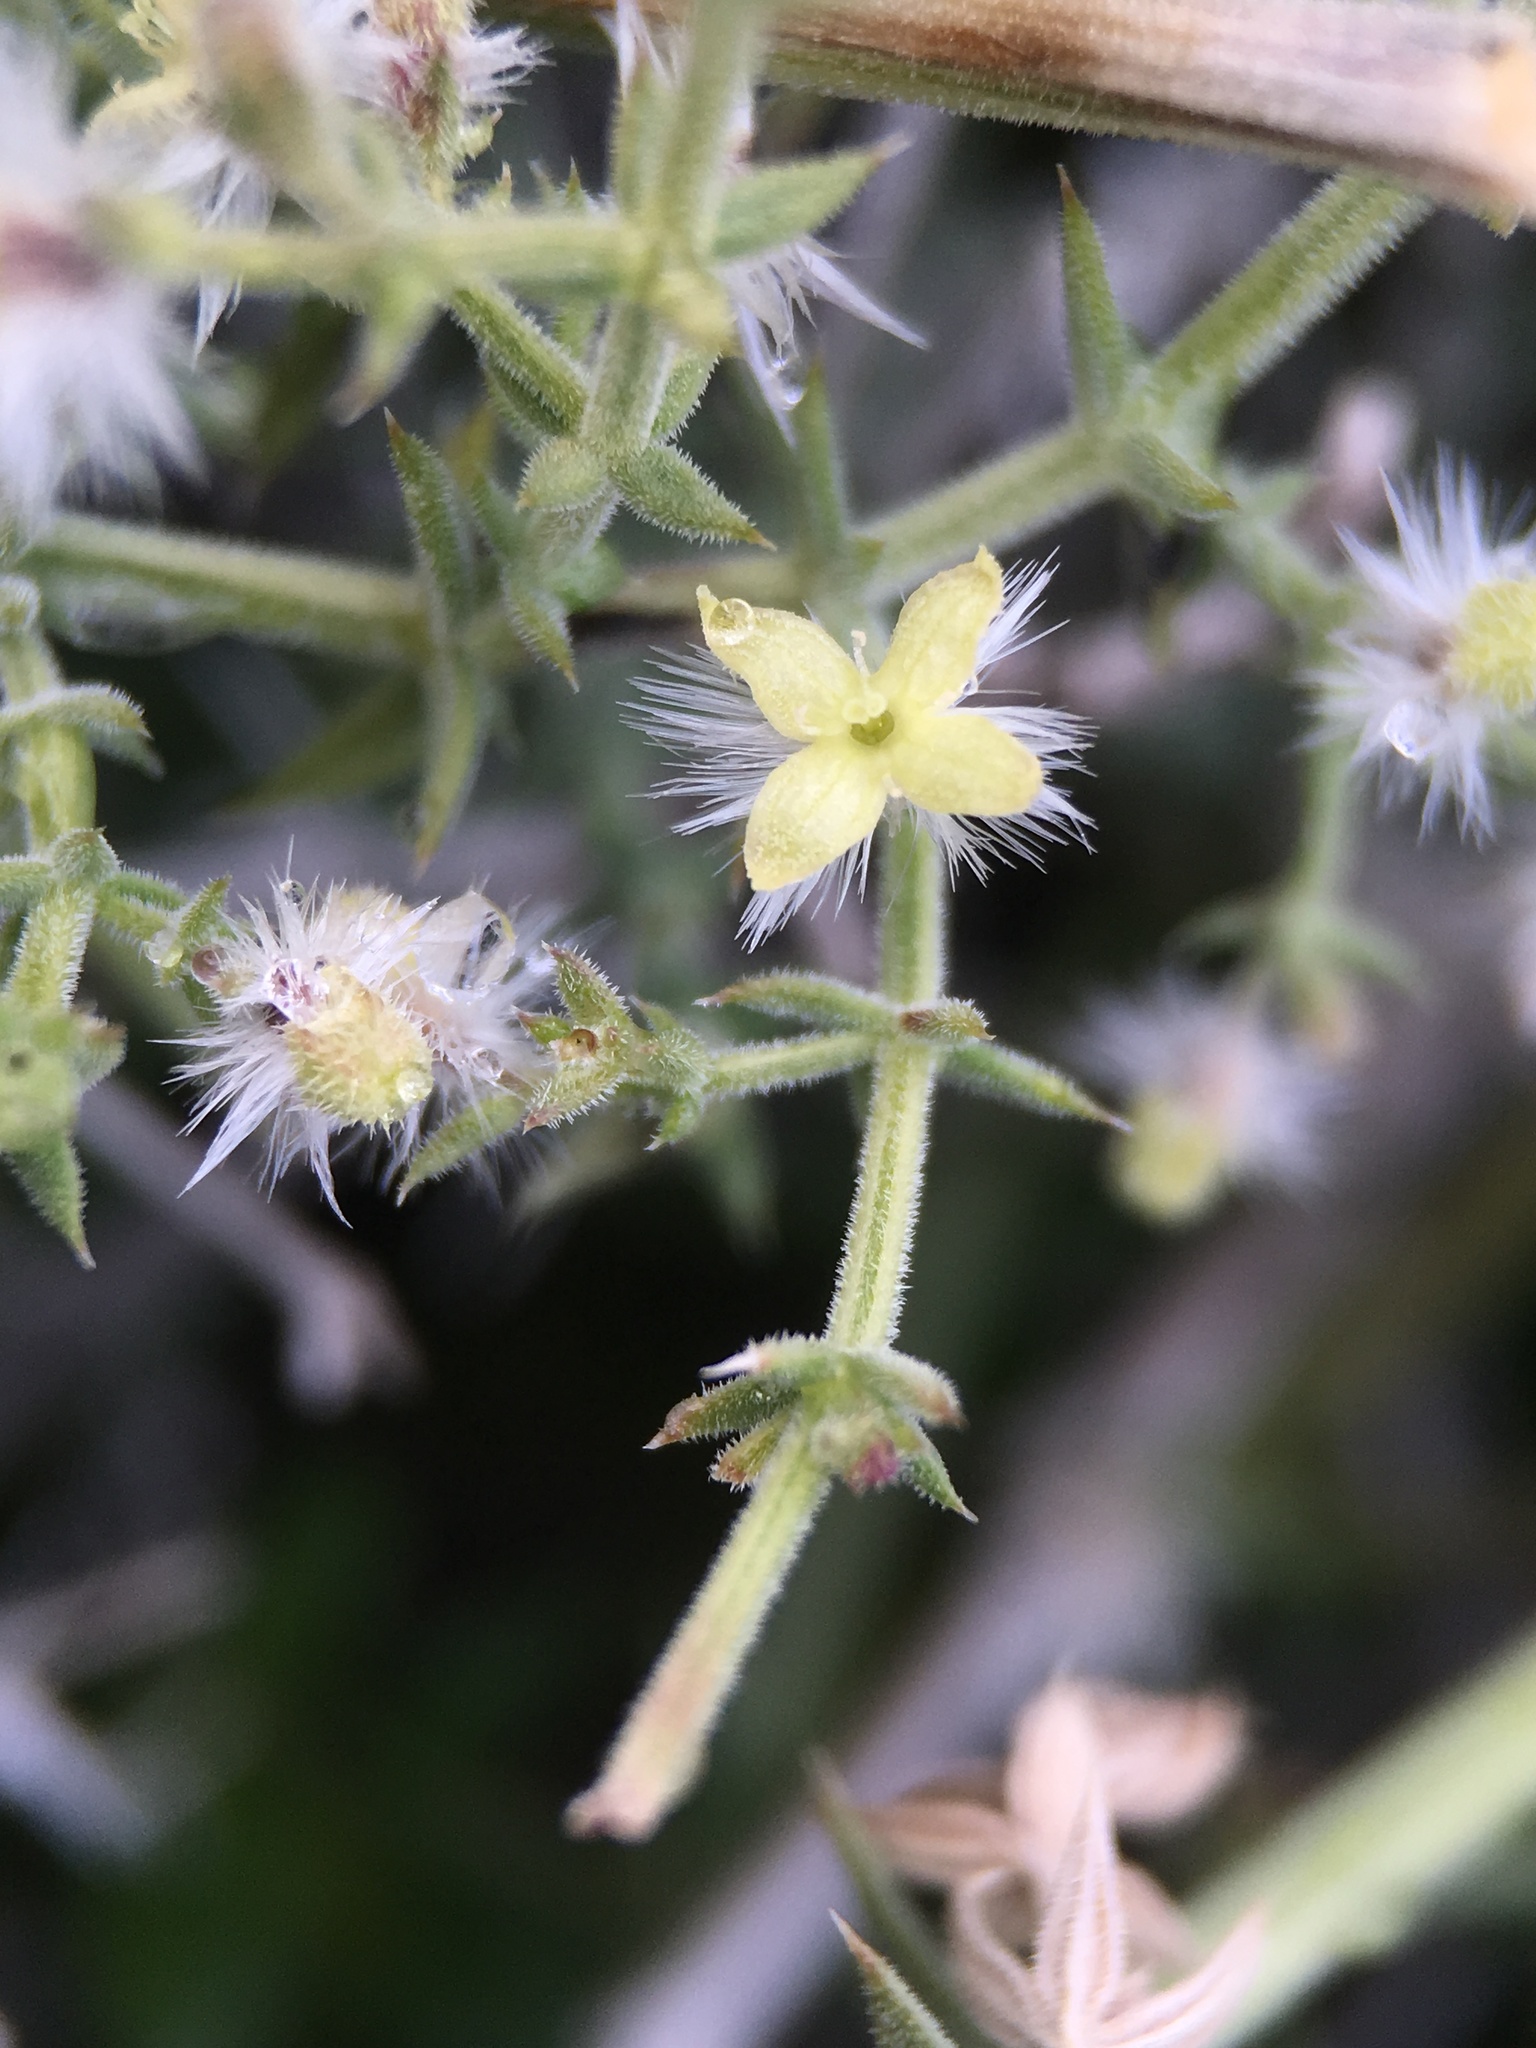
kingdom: Plantae
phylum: Tracheophyta
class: Magnoliopsida
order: Gentianales
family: Rubiaceae
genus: Galium
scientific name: Galium stellatum
